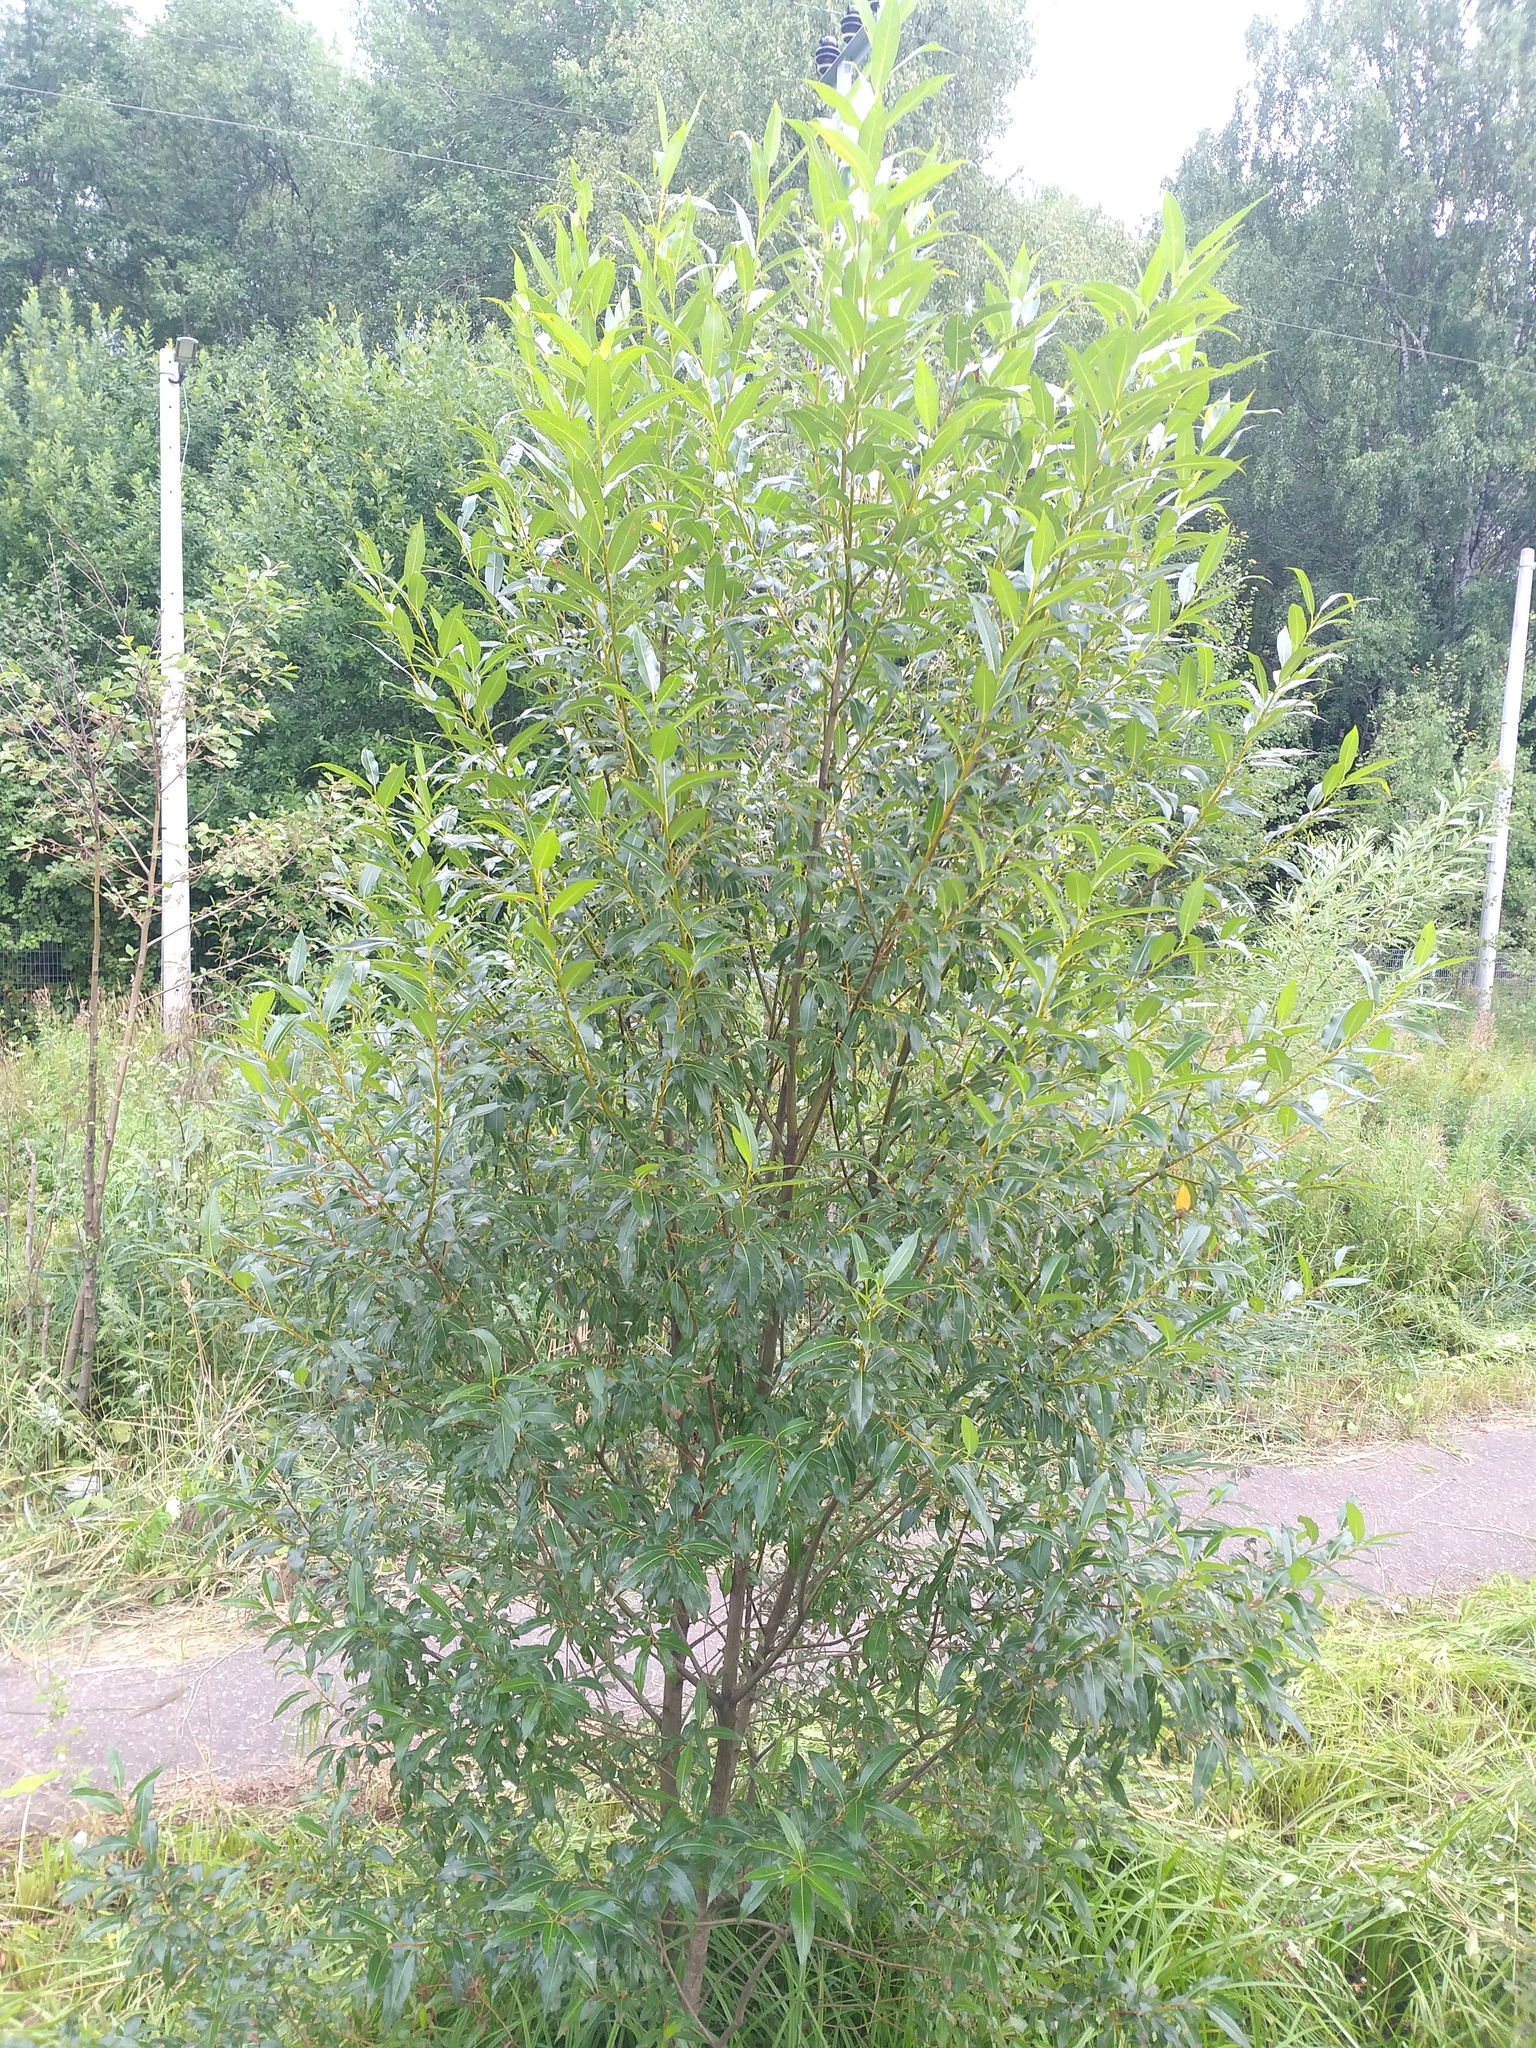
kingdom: Plantae
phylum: Tracheophyta
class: Magnoliopsida
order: Malpighiales
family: Salicaceae
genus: Salix
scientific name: Salix pentandra
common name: Bay willow
